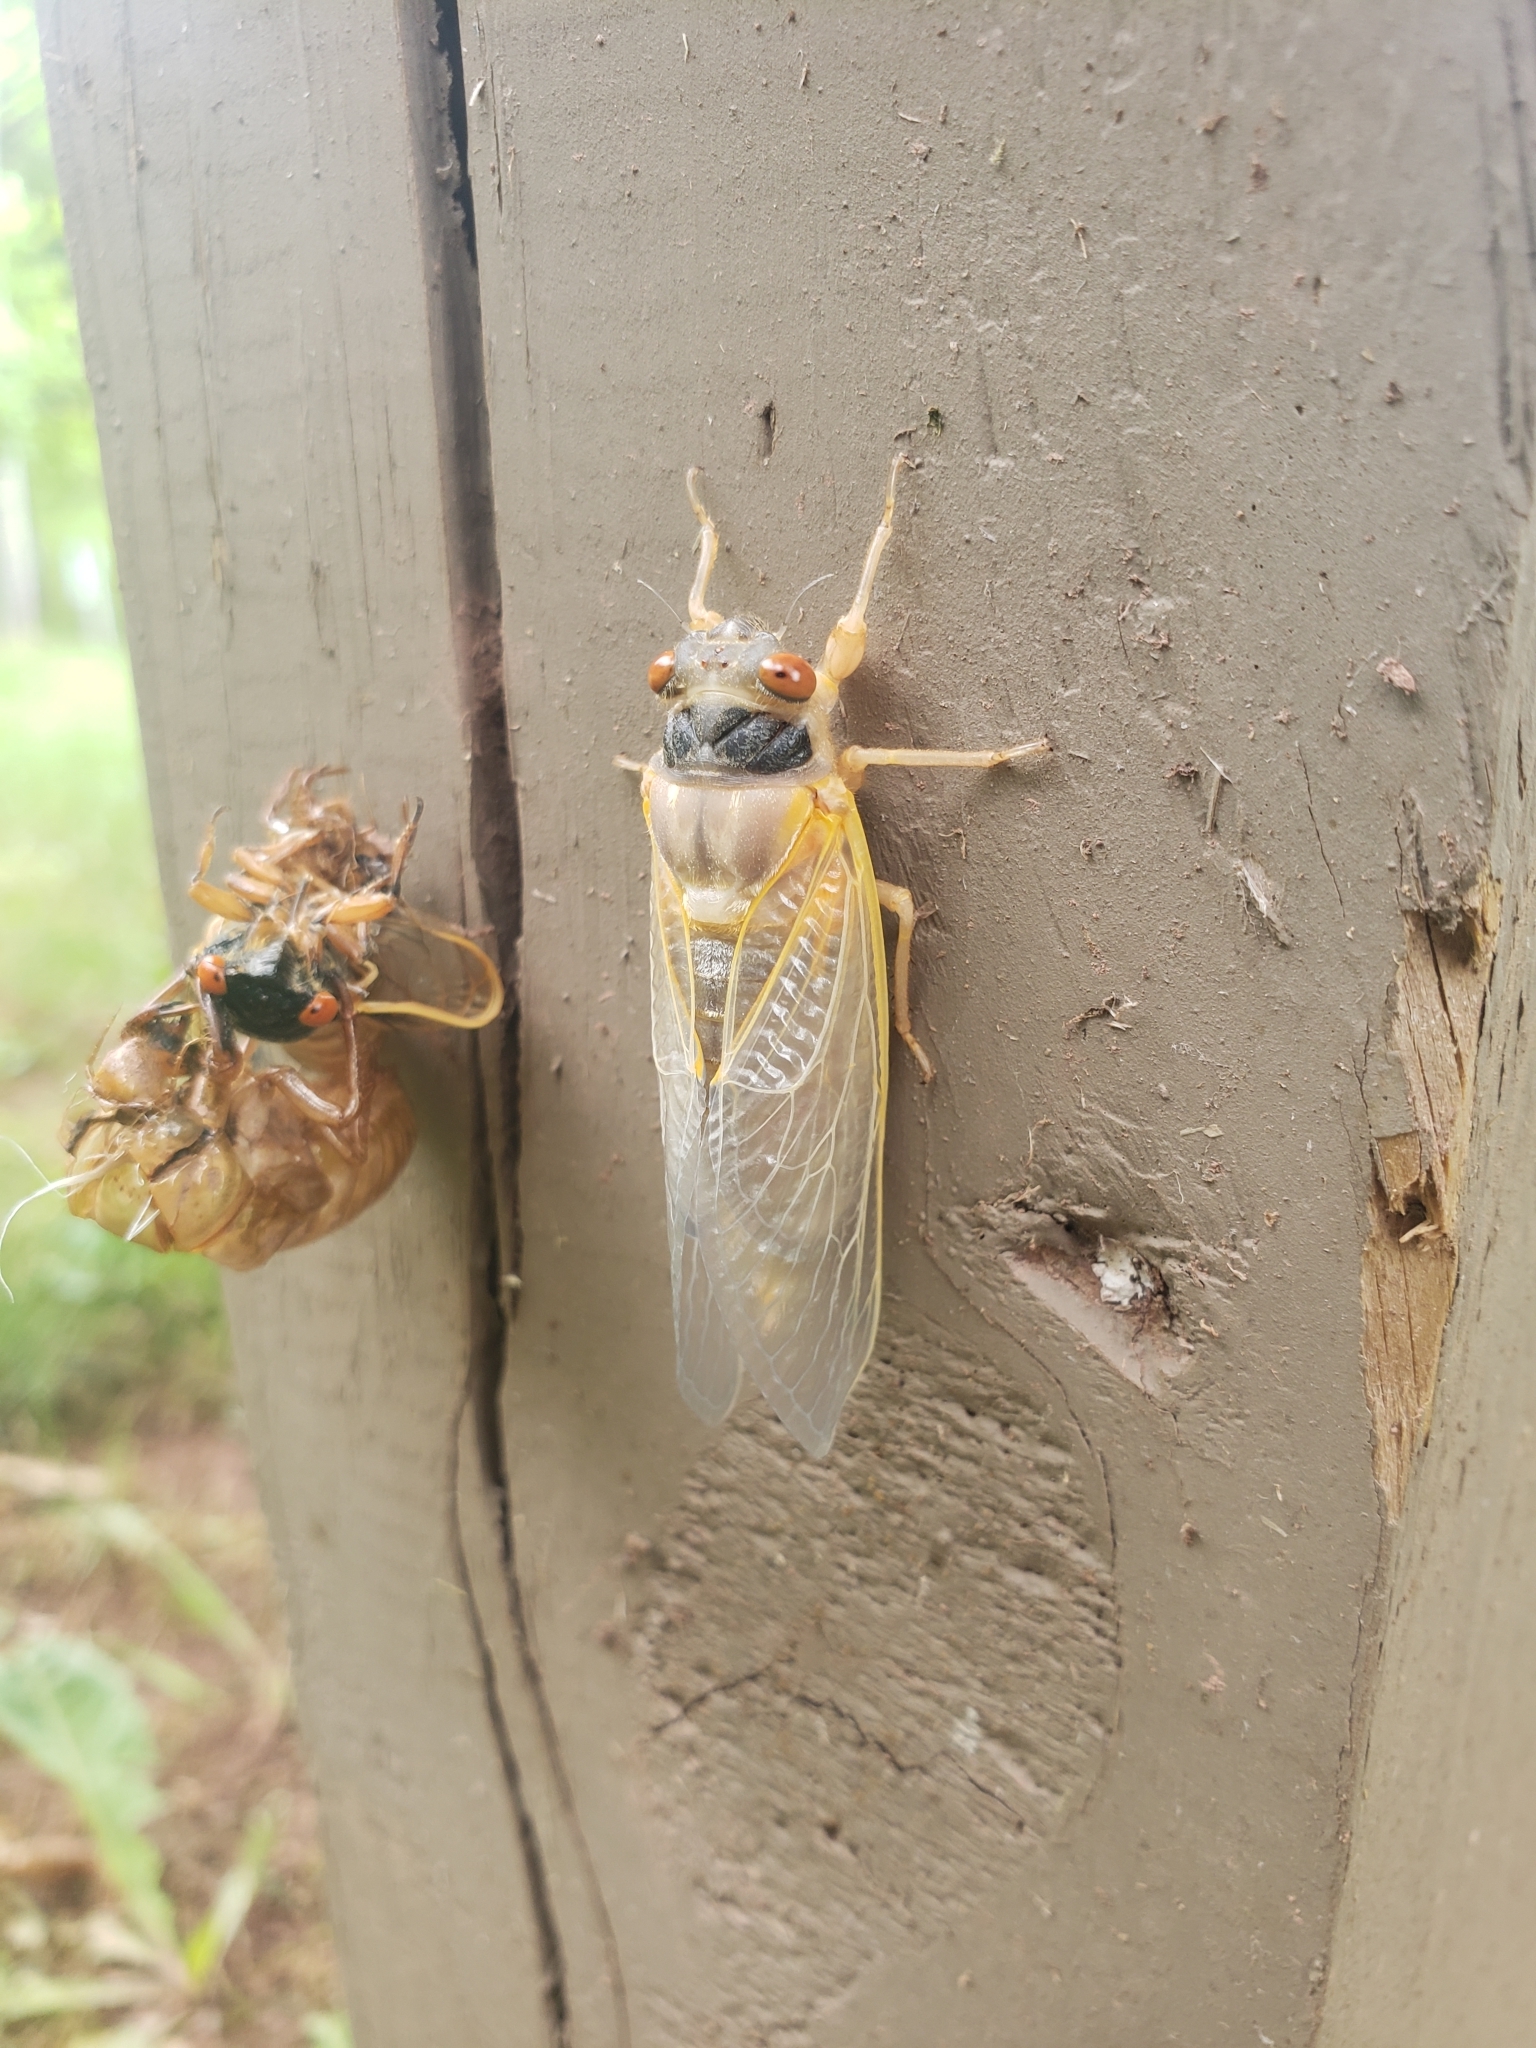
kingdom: Animalia
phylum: Arthropoda
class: Insecta
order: Hemiptera
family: Cicadidae
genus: Magicicada
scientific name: Magicicada
